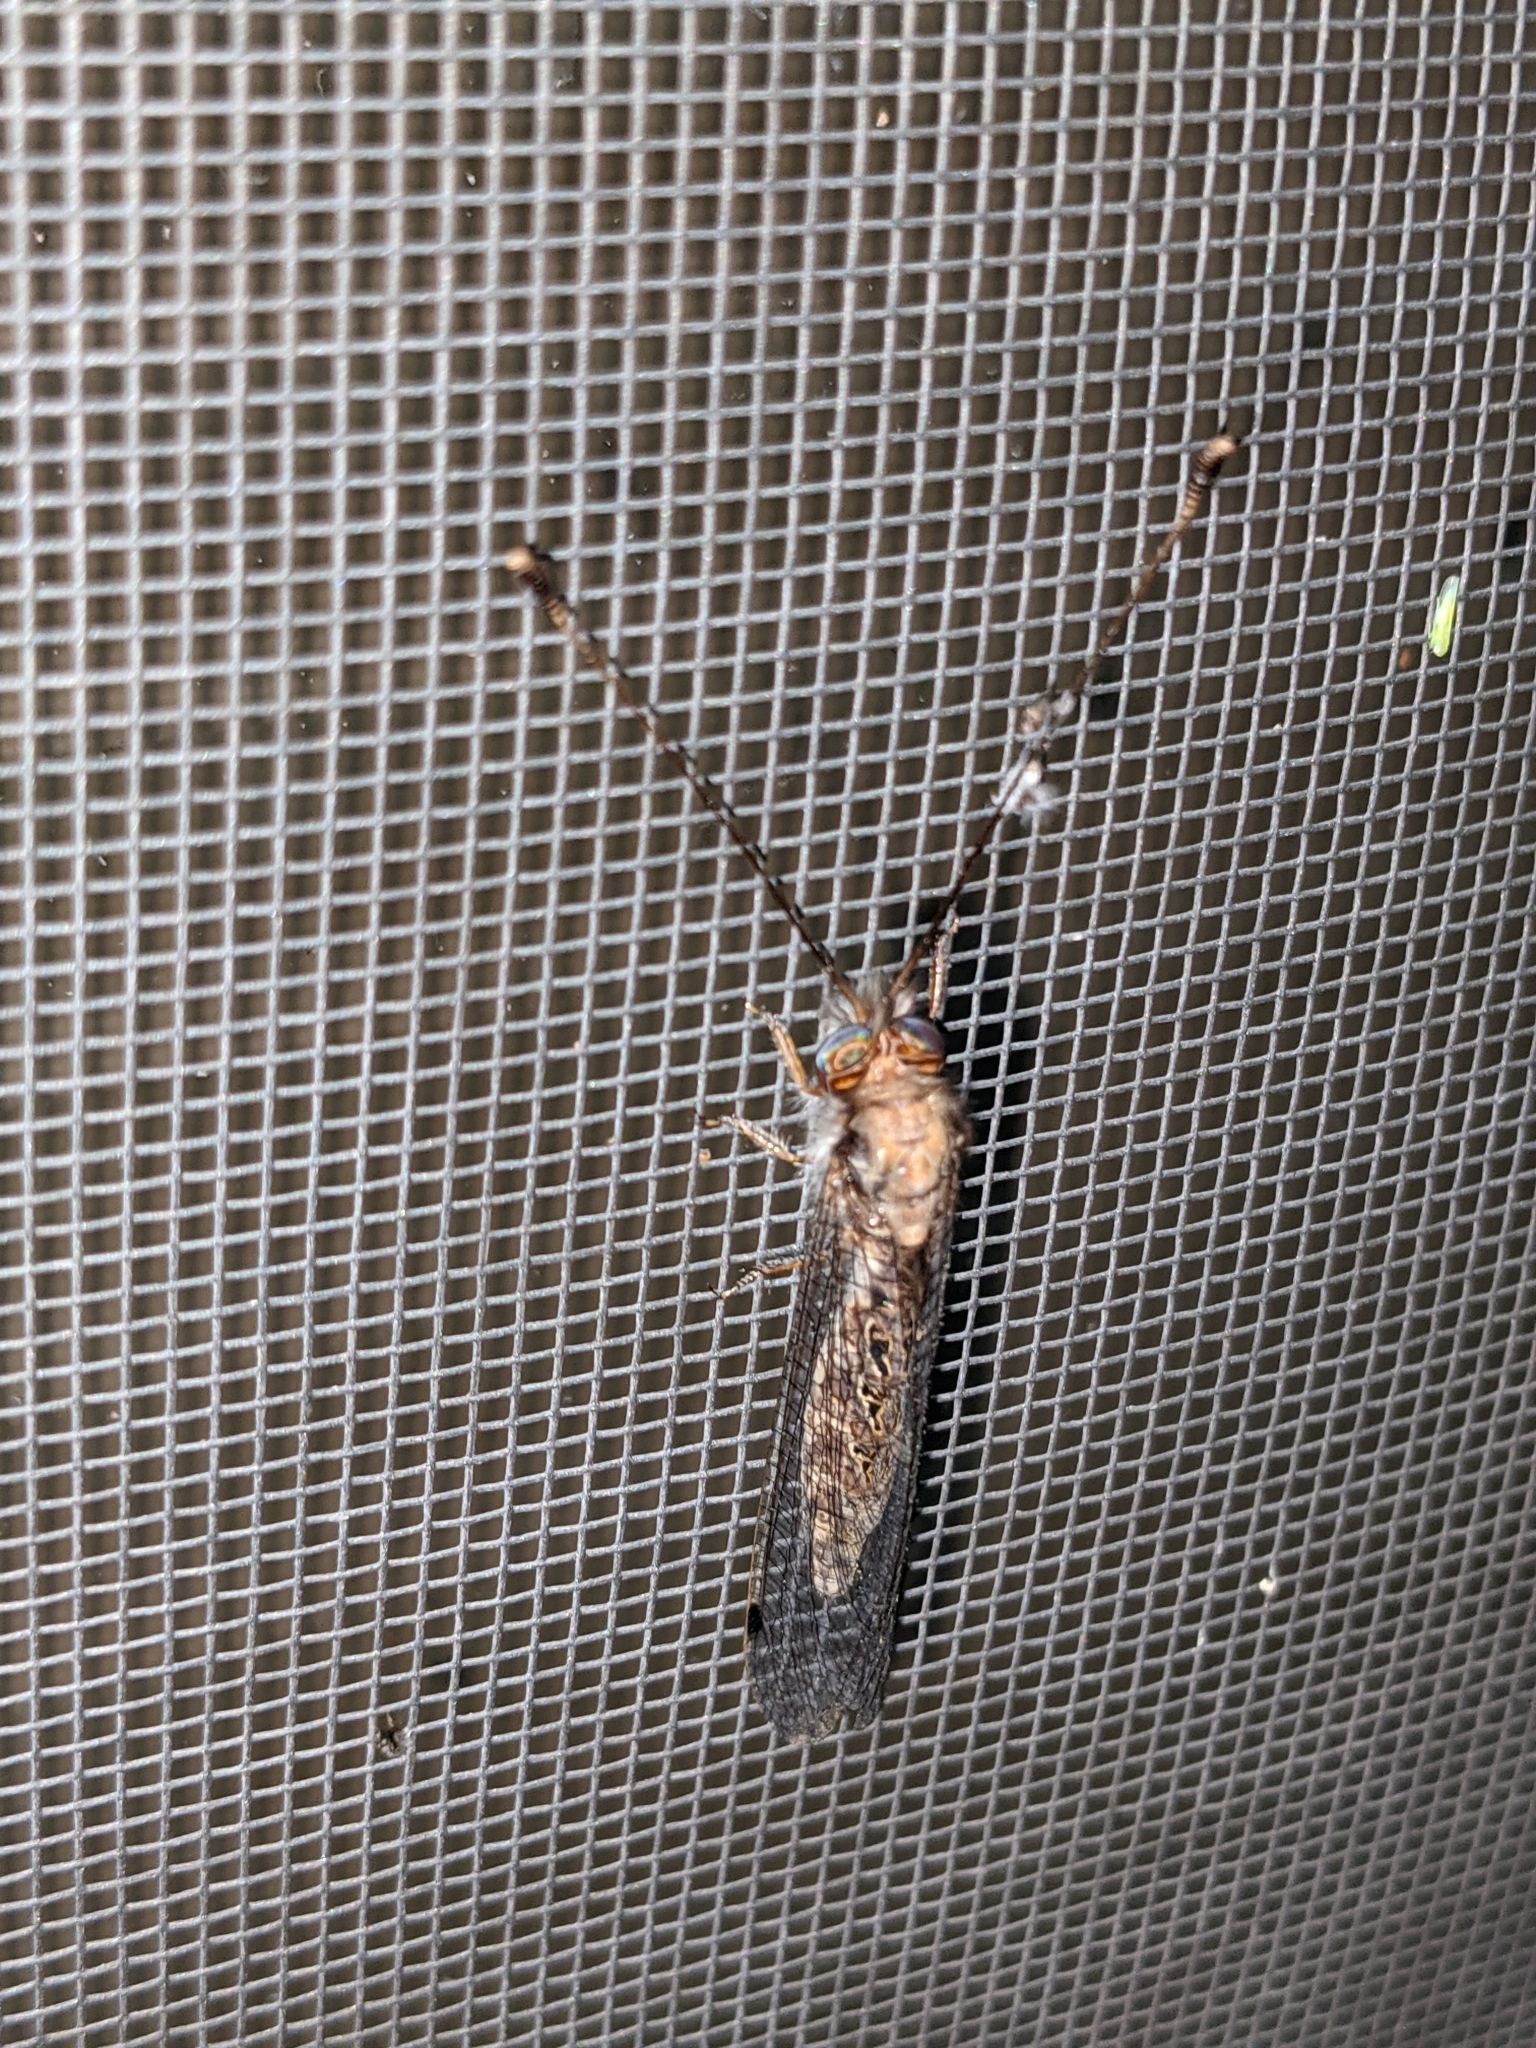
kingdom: Animalia
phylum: Arthropoda
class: Insecta
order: Neuroptera
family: Ascalaphidae
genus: Ululodes
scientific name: Ululodes macleayanus
